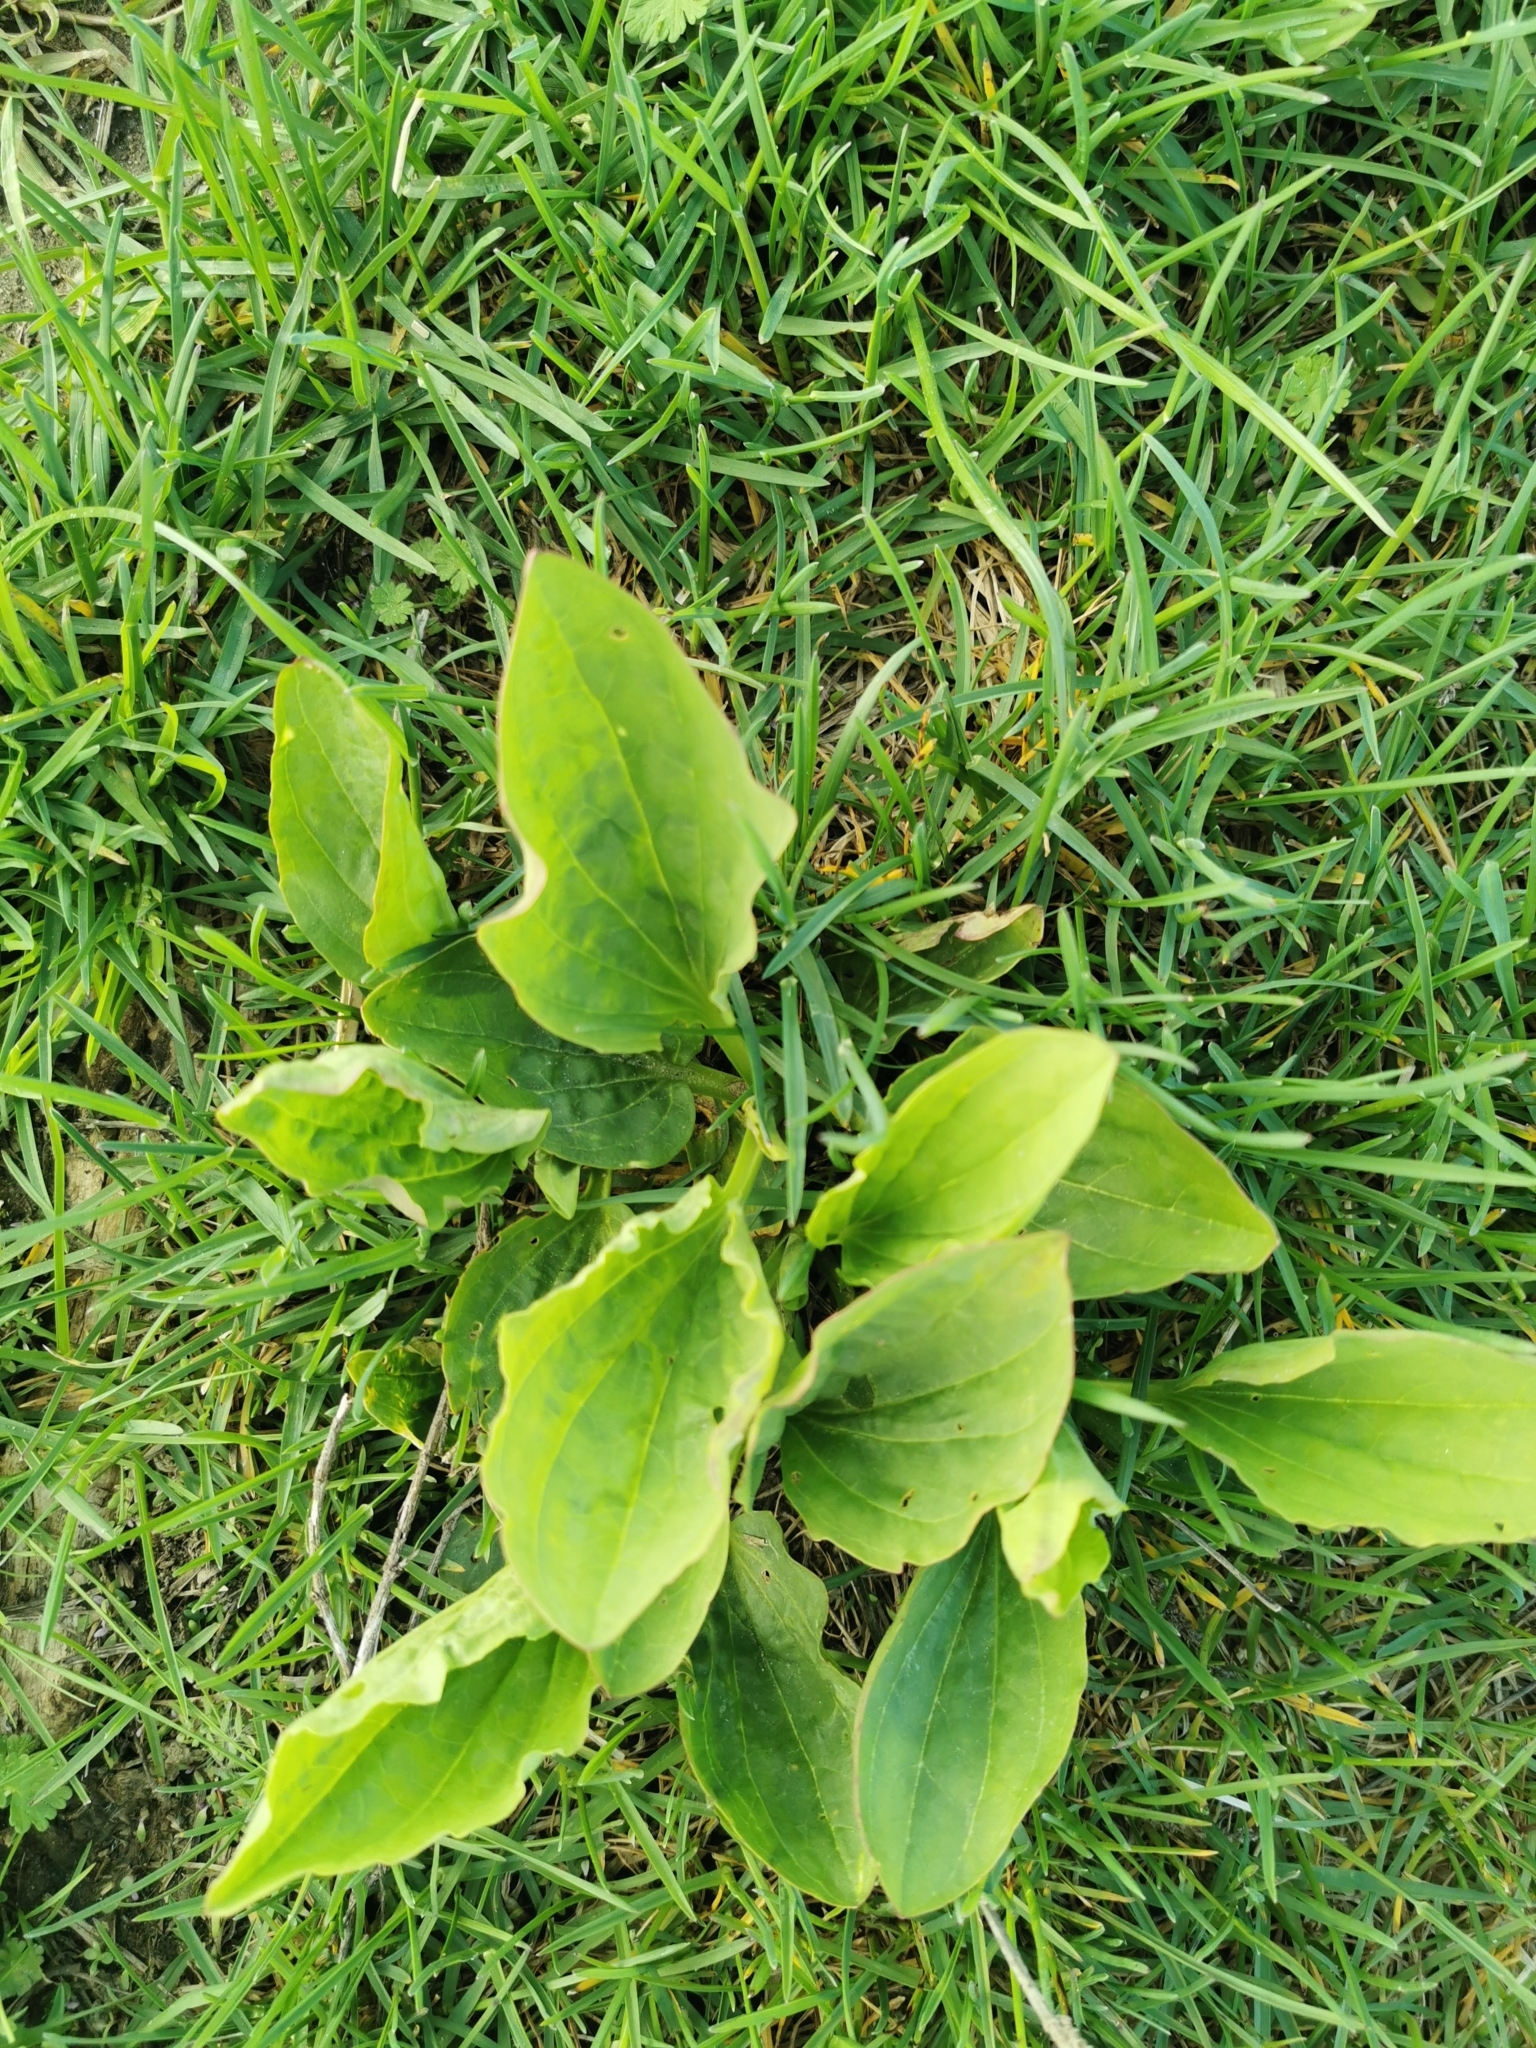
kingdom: Plantae
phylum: Tracheophyta
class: Magnoliopsida
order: Lamiales
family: Plantaginaceae
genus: Plantago
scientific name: Plantago major
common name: Common plantain
